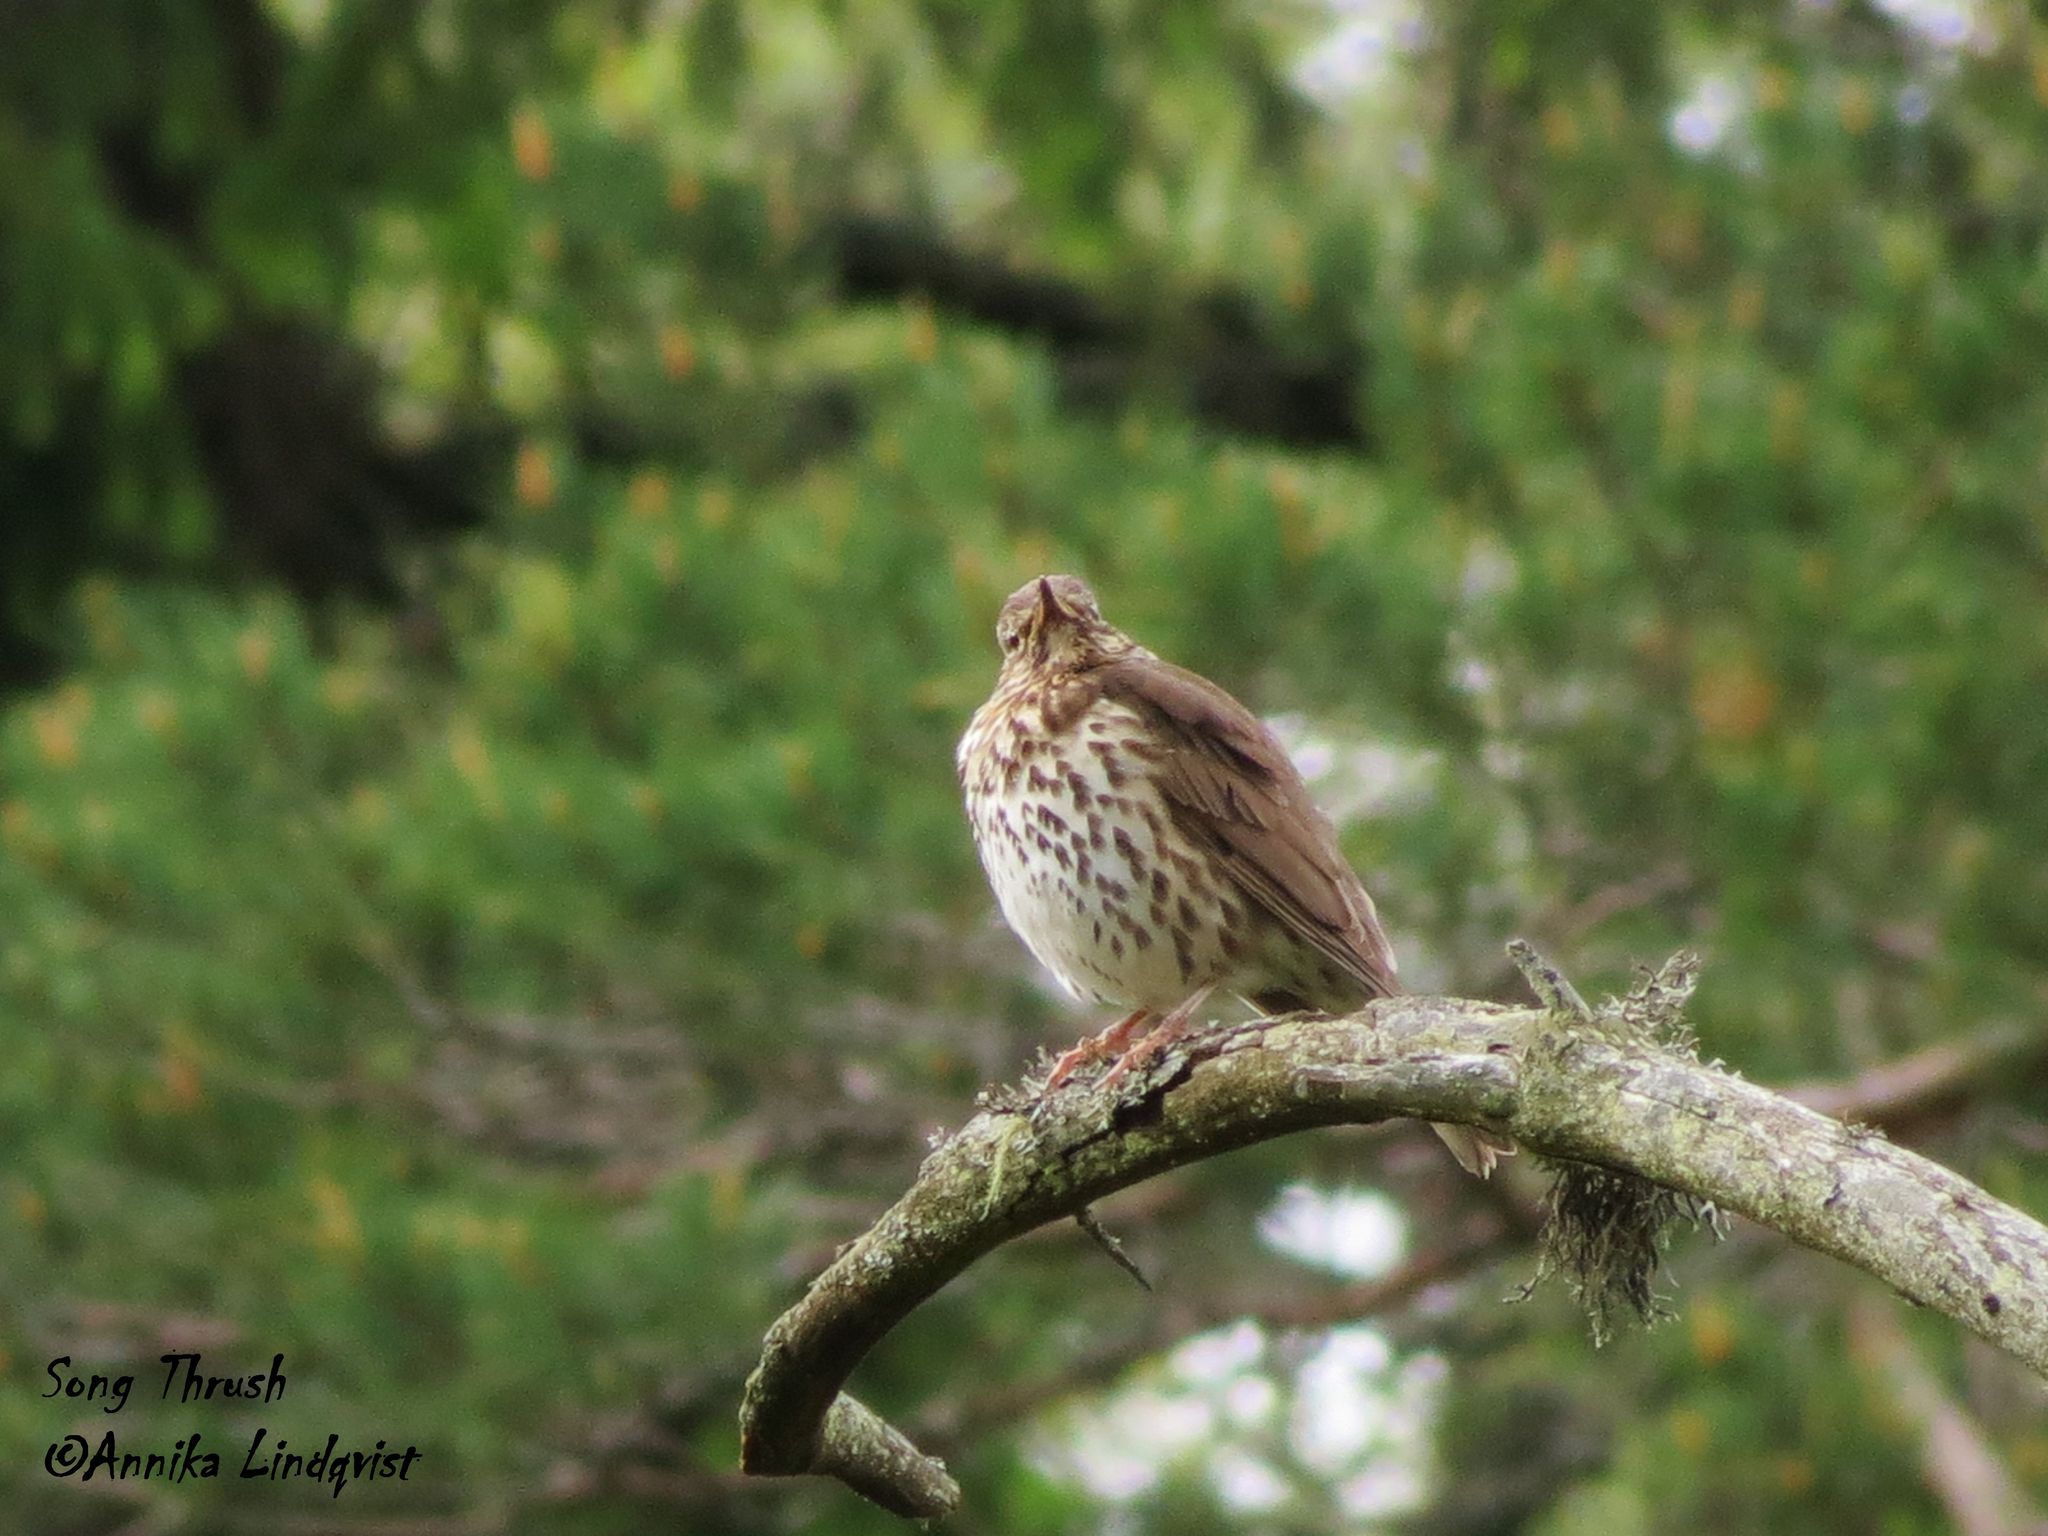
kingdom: Animalia
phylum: Chordata
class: Aves
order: Passeriformes
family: Turdidae
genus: Turdus
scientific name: Turdus philomelos
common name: Song thrush
